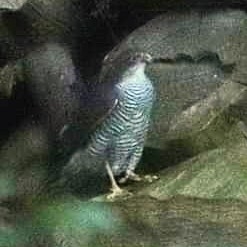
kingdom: Animalia
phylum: Chordata
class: Aves
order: Accipitriformes
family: Accipitridae
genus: Accipiter
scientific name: Accipiter nisus
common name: Eurasian sparrowhawk
